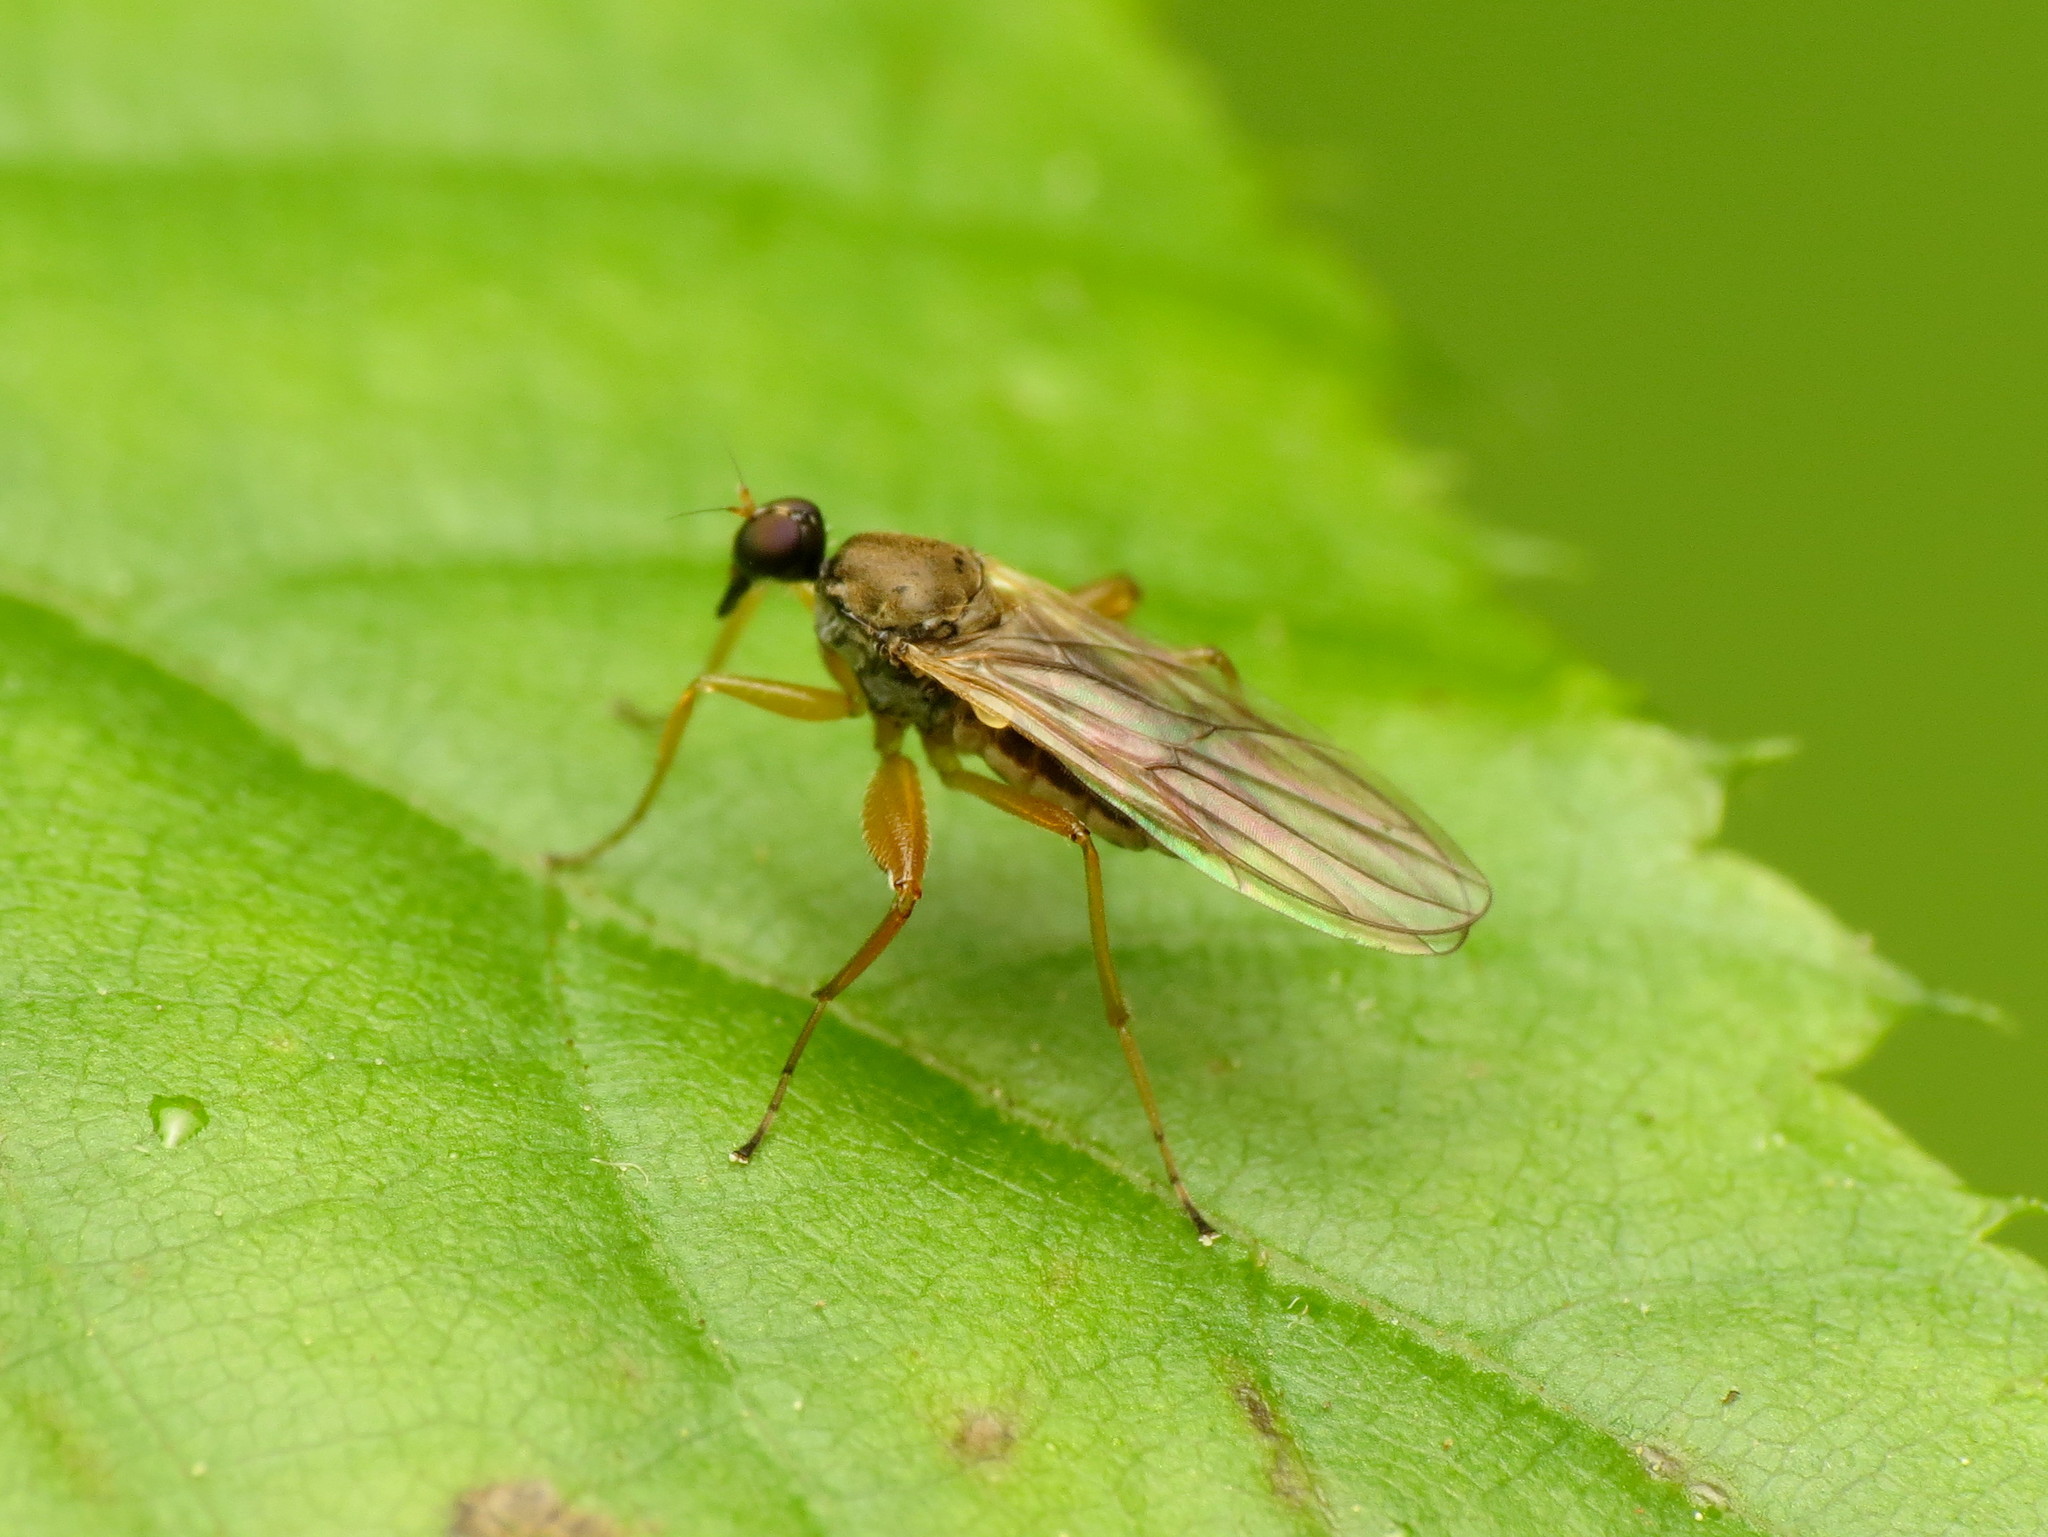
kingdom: Animalia
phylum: Arthropoda
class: Insecta
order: Diptera
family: Hybotidae
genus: Platypalpus
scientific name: Platypalpus discifer
